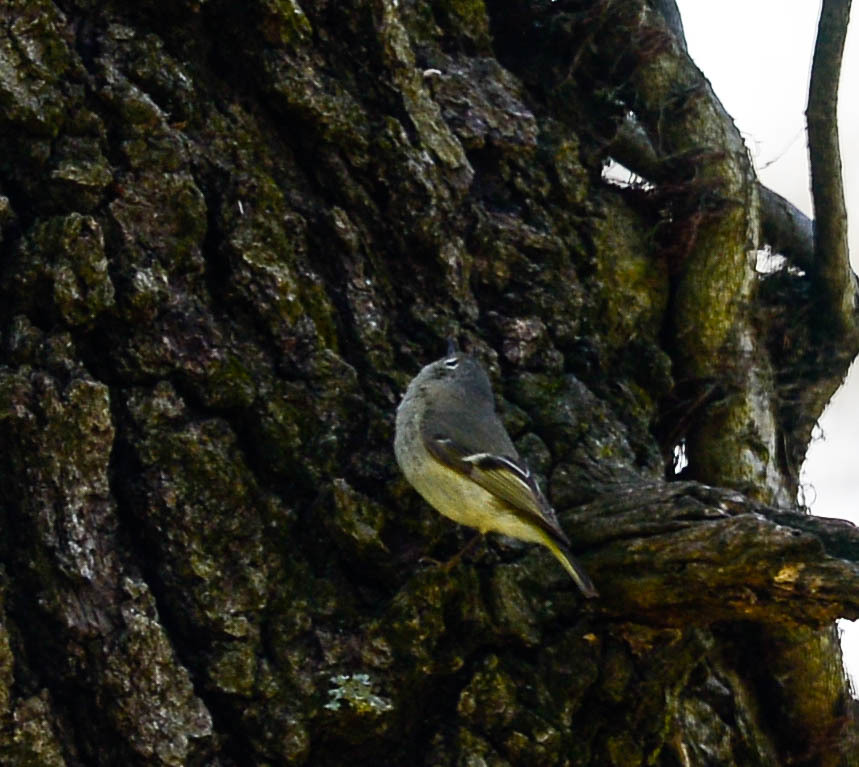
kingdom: Animalia
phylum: Chordata
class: Aves
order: Passeriformes
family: Regulidae
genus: Regulus
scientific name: Regulus calendula
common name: Ruby-crowned kinglet
